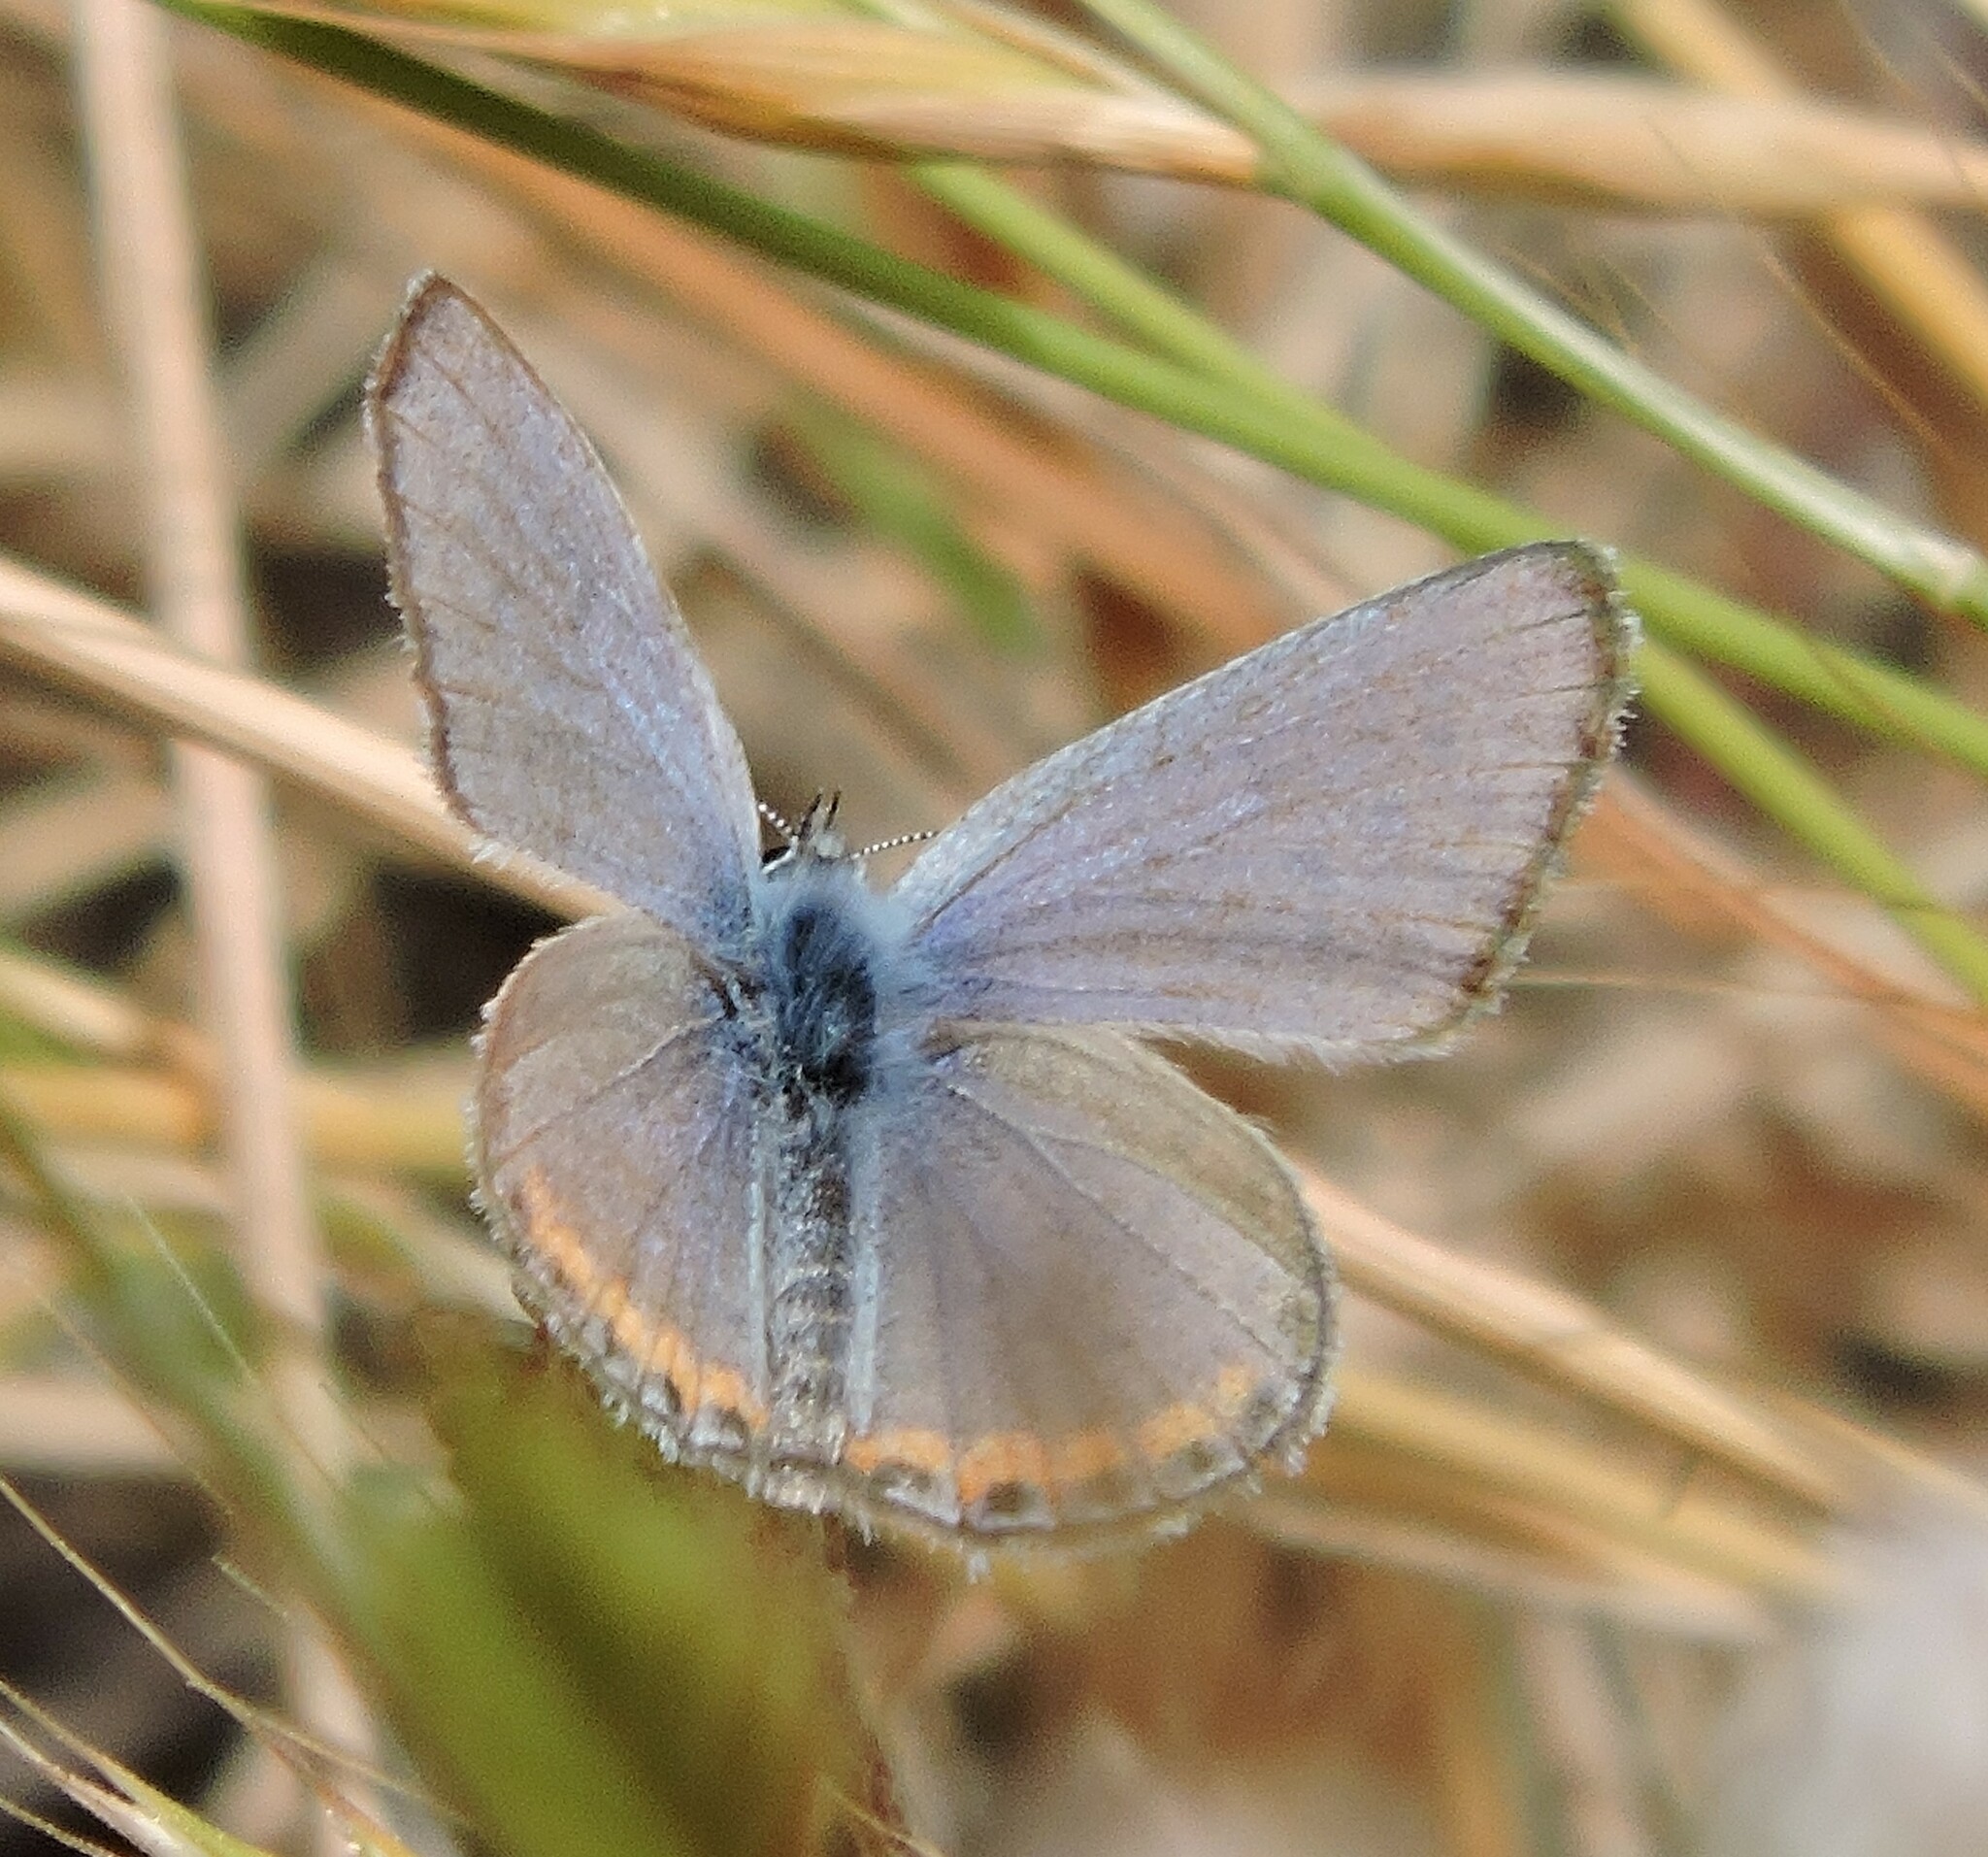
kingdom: Animalia
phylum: Arthropoda
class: Insecta
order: Lepidoptera
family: Lycaenidae
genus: Icaricia
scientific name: Icaricia acmon
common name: Acmon blue
